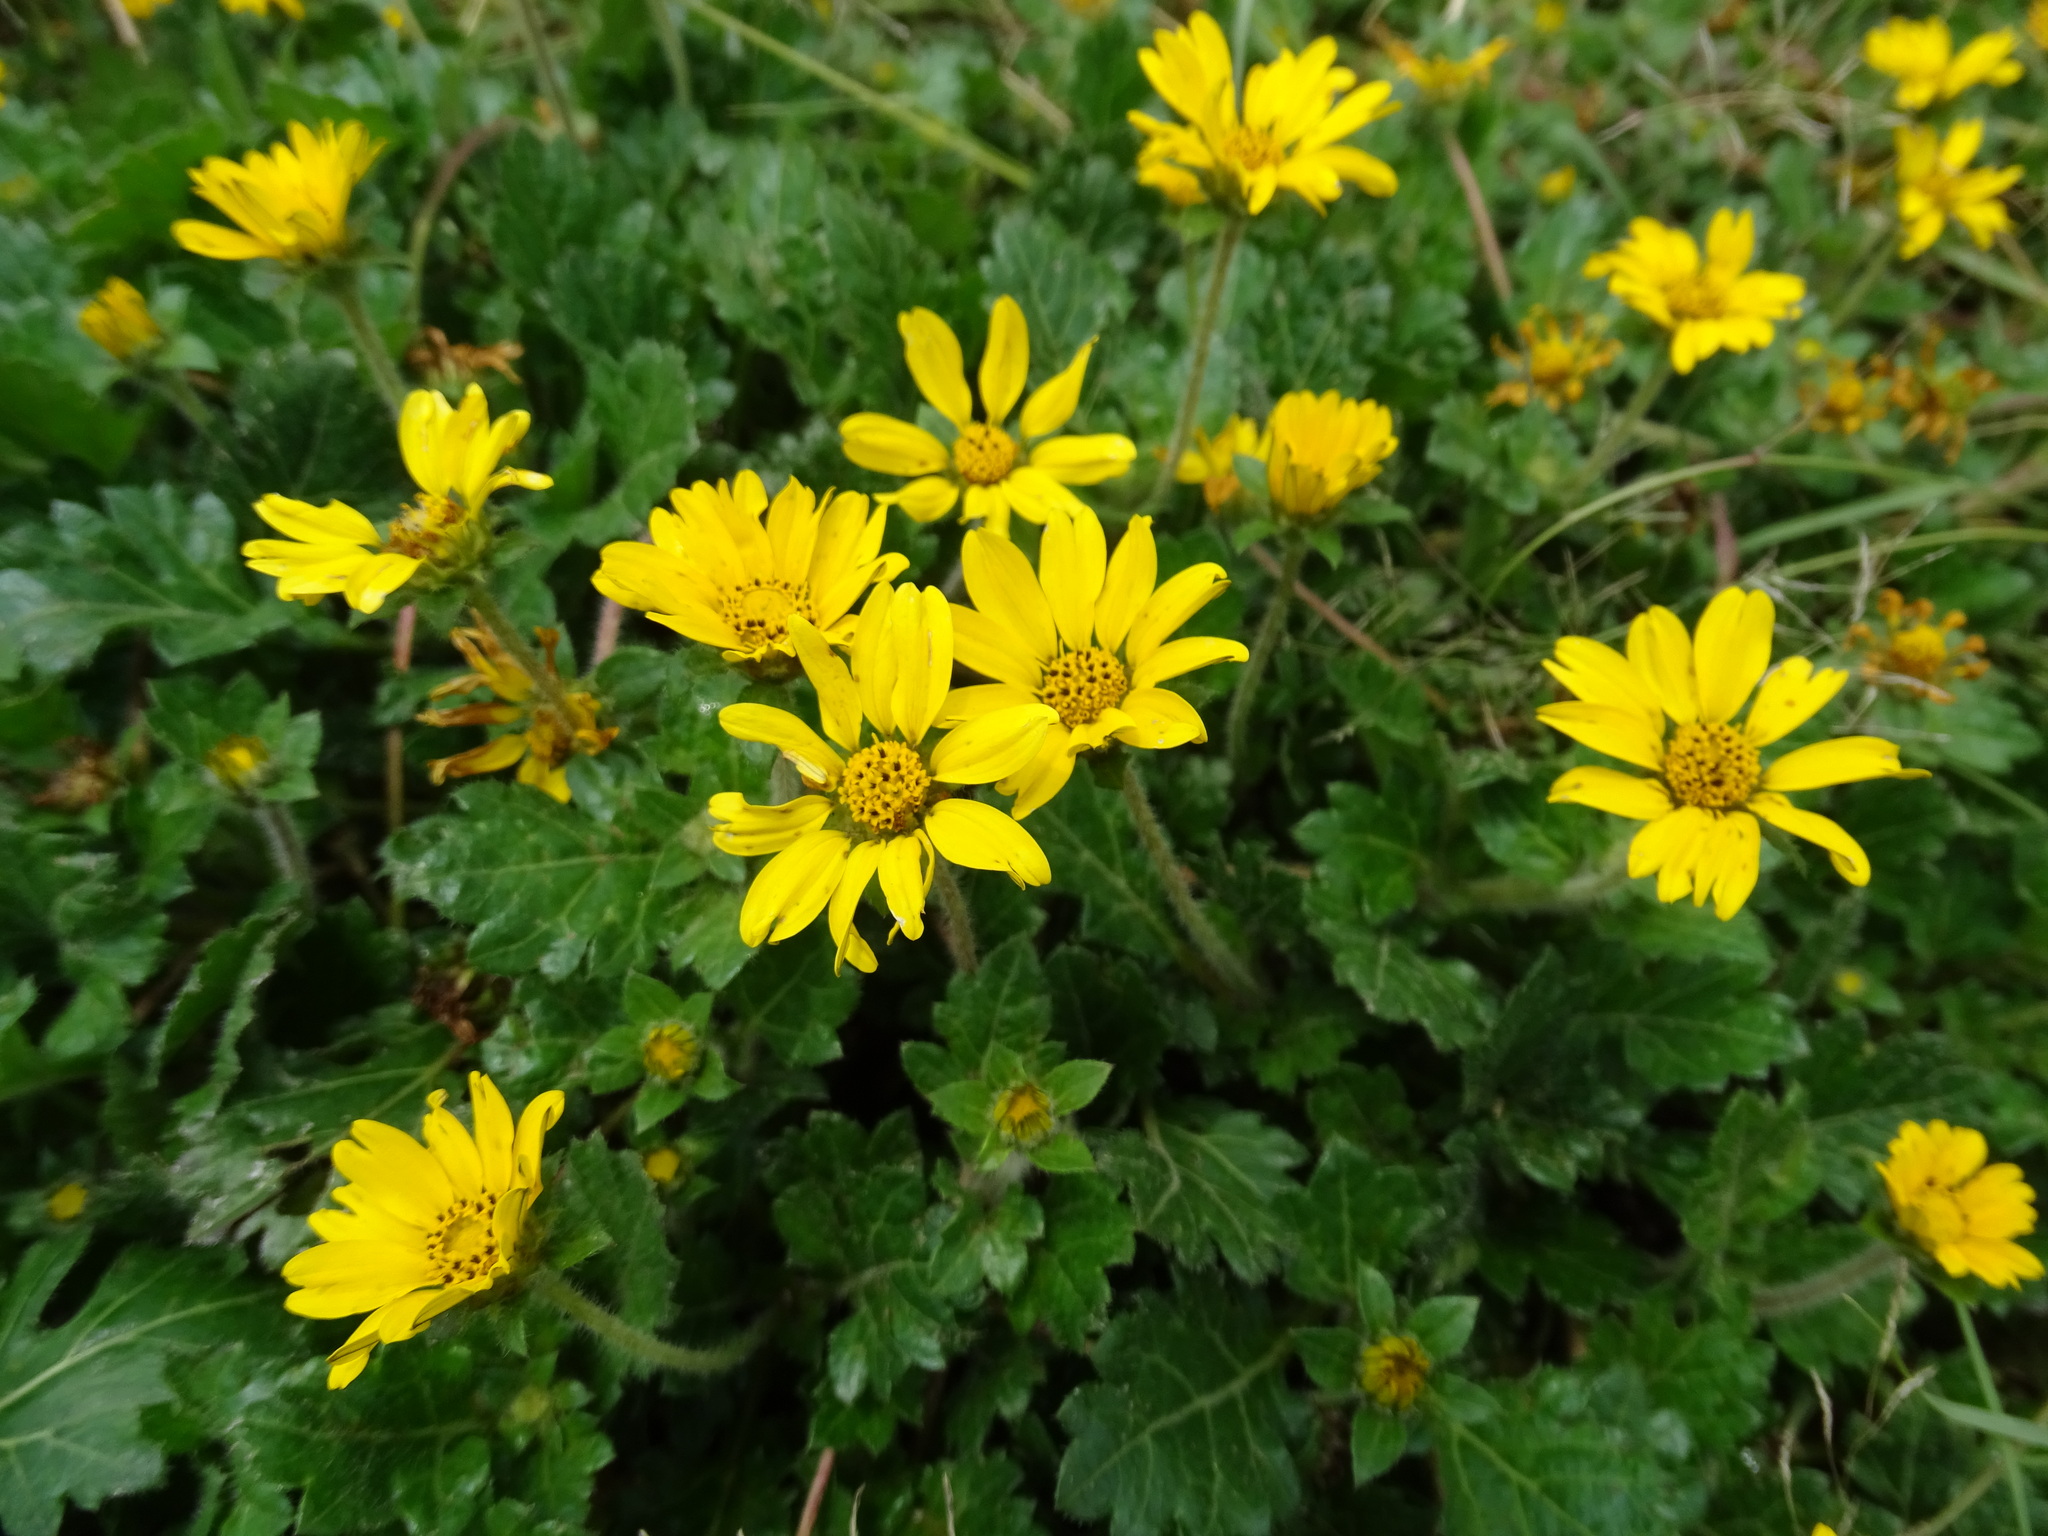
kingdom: Plantae
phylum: Tracheophyta
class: Magnoliopsida
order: Asterales
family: Asteraceae
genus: Dugesia
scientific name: Dugesia mexicana
